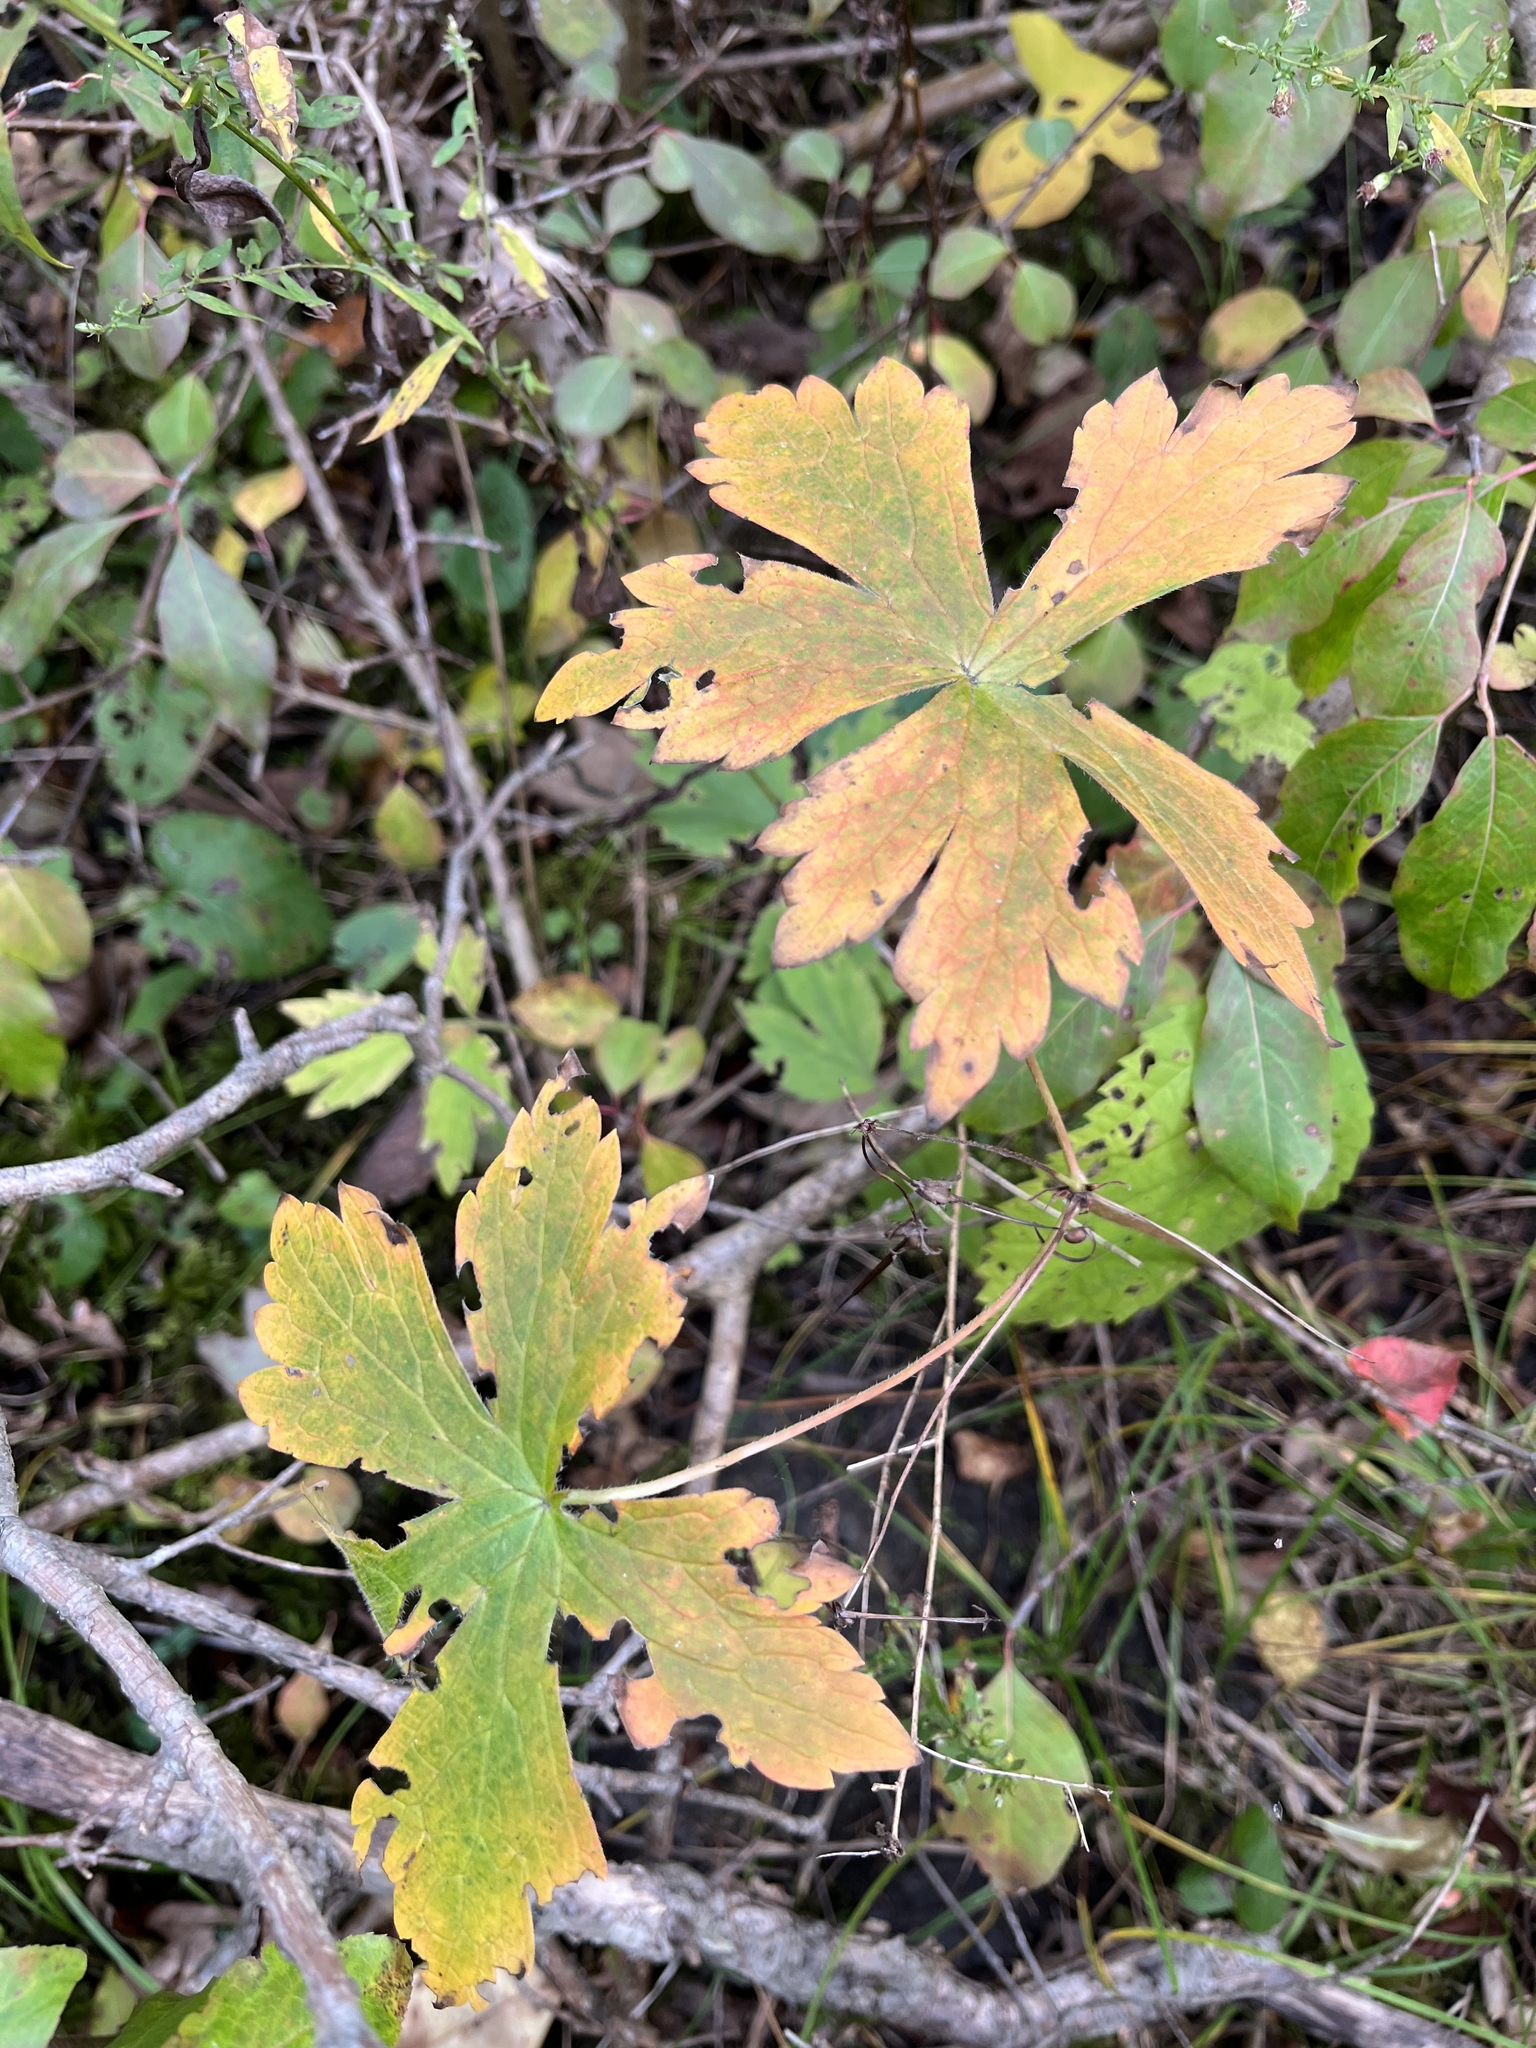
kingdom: Plantae
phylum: Tracheophyta
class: Magnoliopsida
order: Geraniales
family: Geraniaceae
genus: Geranium
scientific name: Geranium maculatum
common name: Spotted geranium
